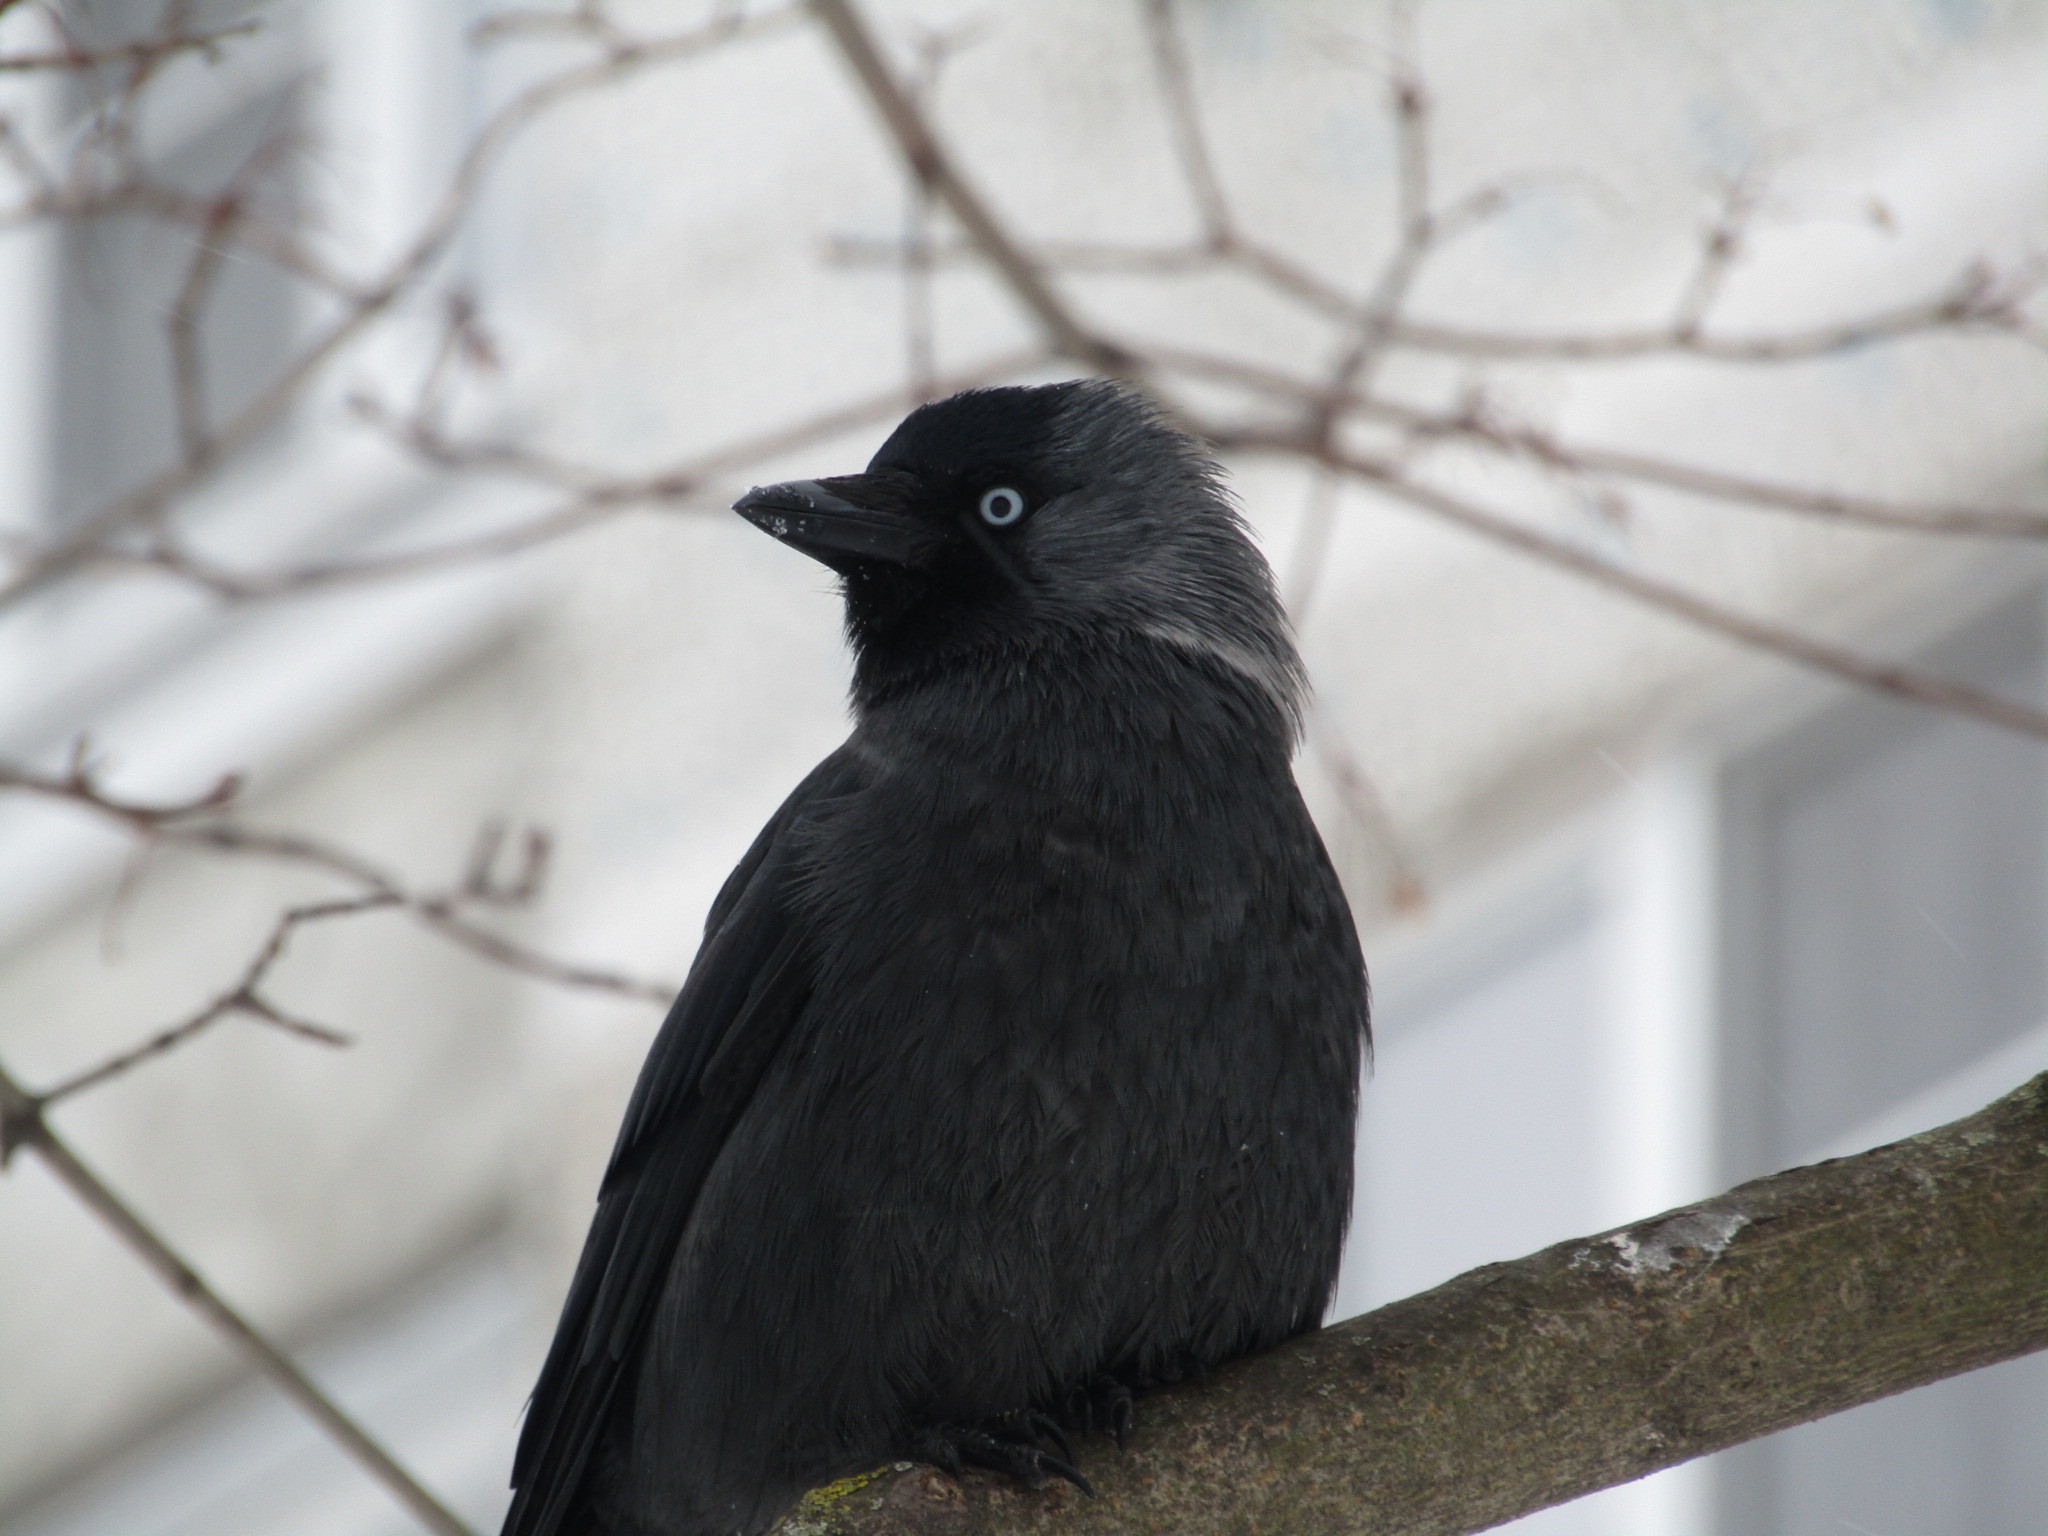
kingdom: Animalia
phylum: Chordata
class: Aves
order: Passeriformes
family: Corvidae
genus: Coloeus
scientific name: Coloeus monedula
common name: Western jackdaw
